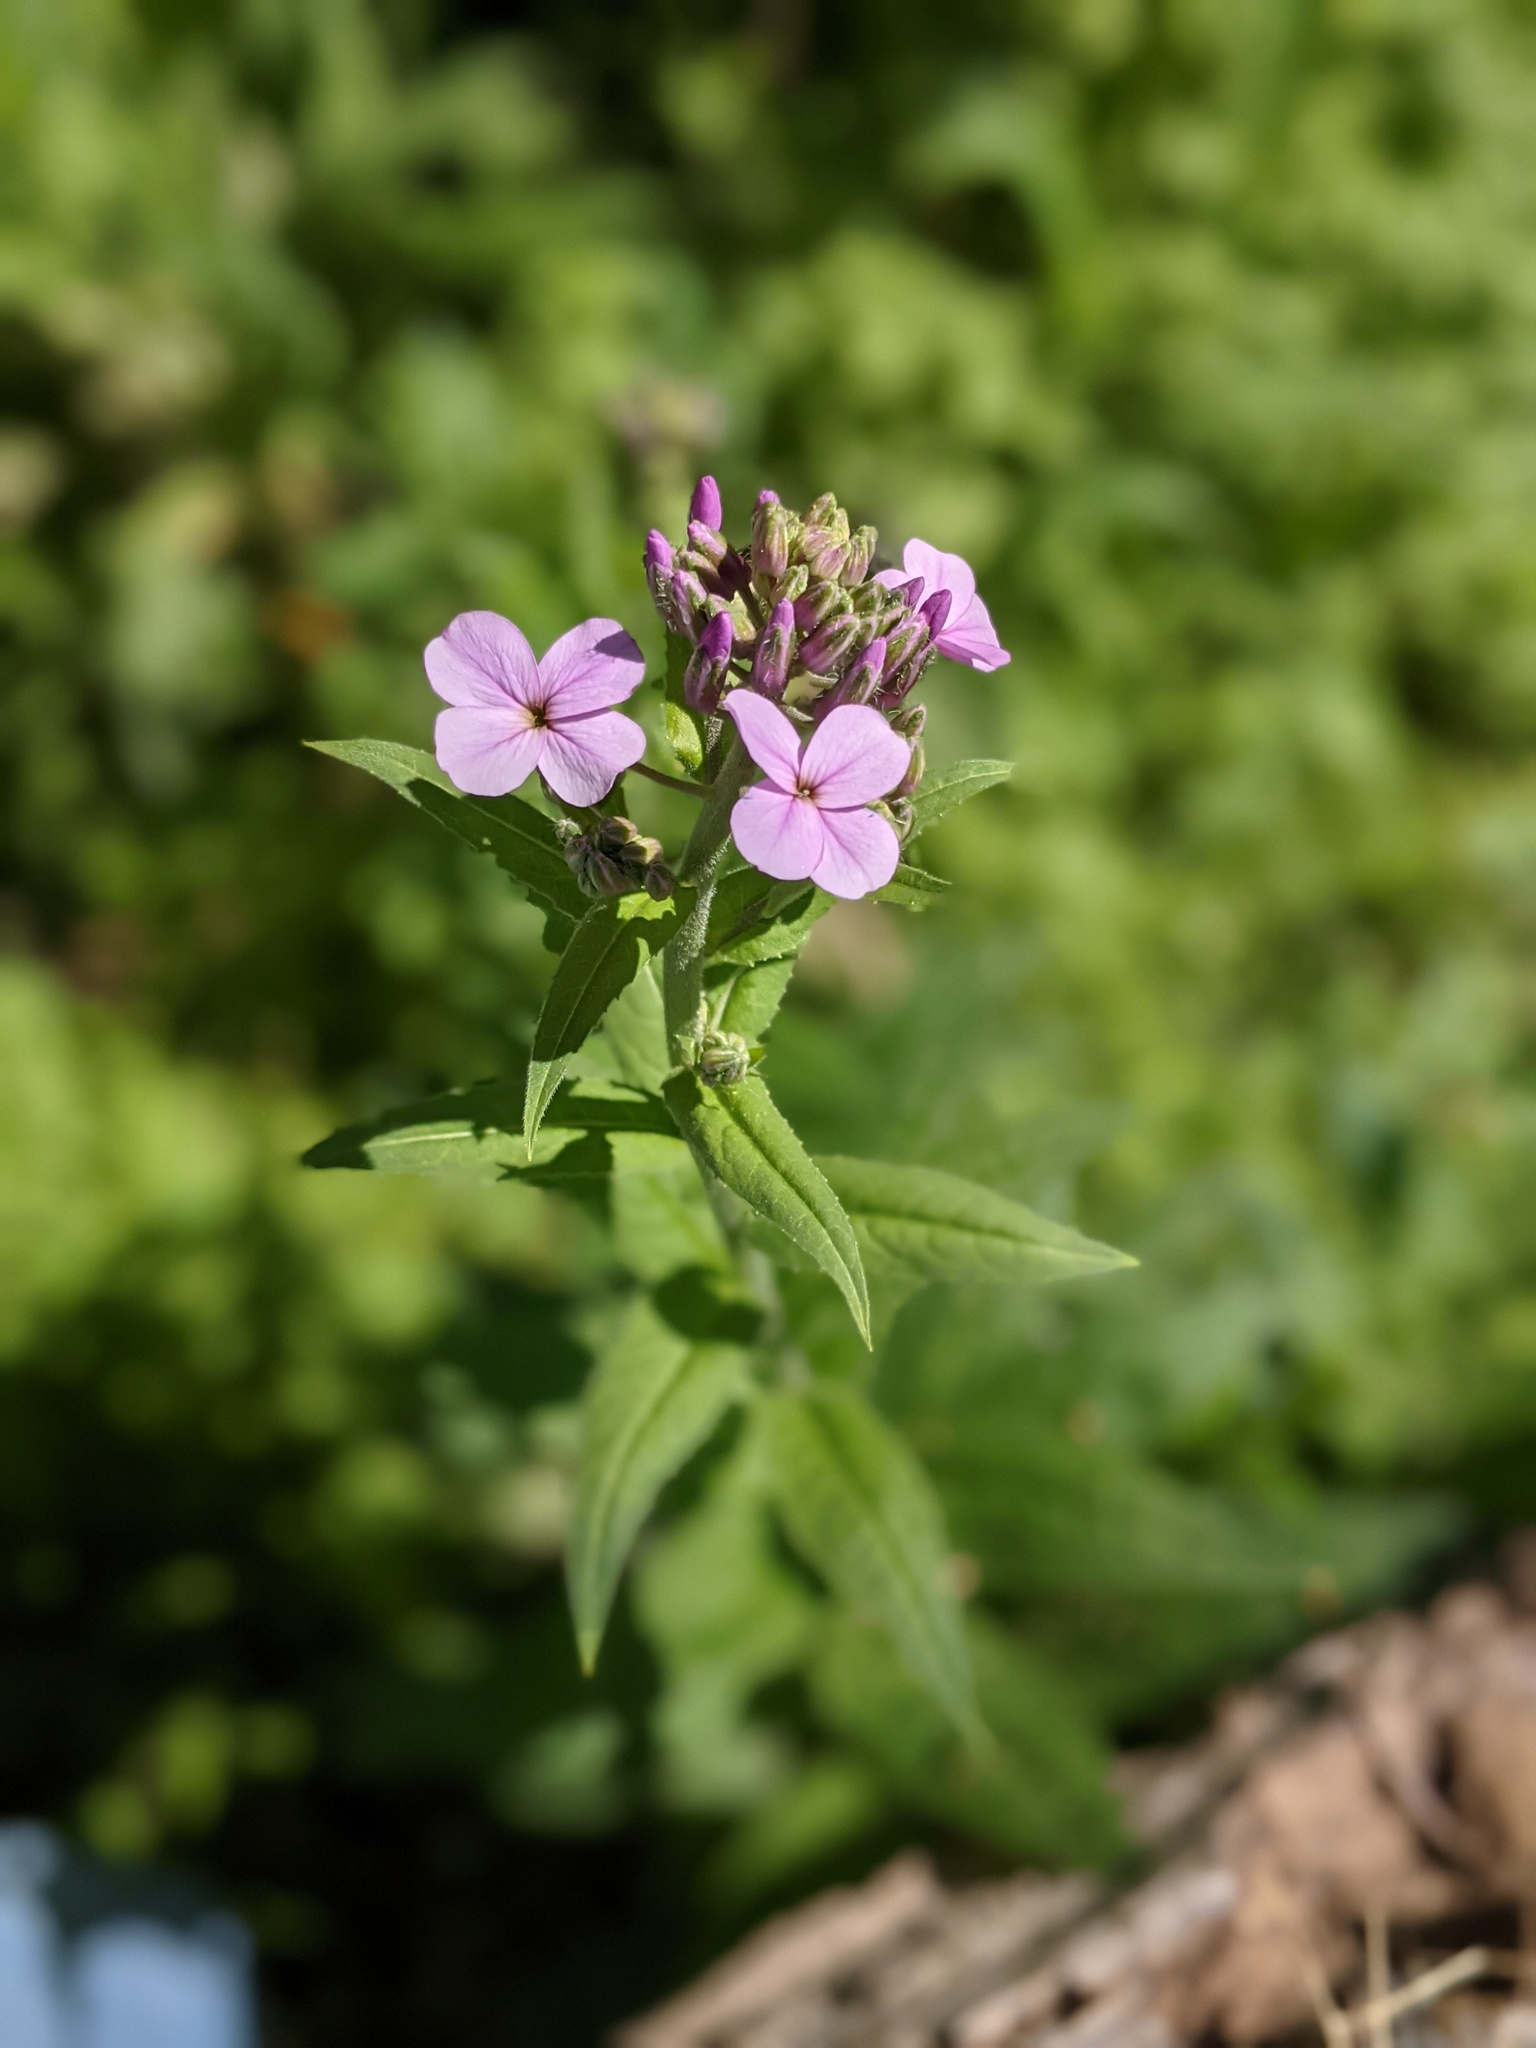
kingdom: Plantae
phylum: Tracheophyta
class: Magnoliopsida
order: Brassicales
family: Brassicaceae
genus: Hesperis
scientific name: Hesperis matronalis
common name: Dame's-violet
